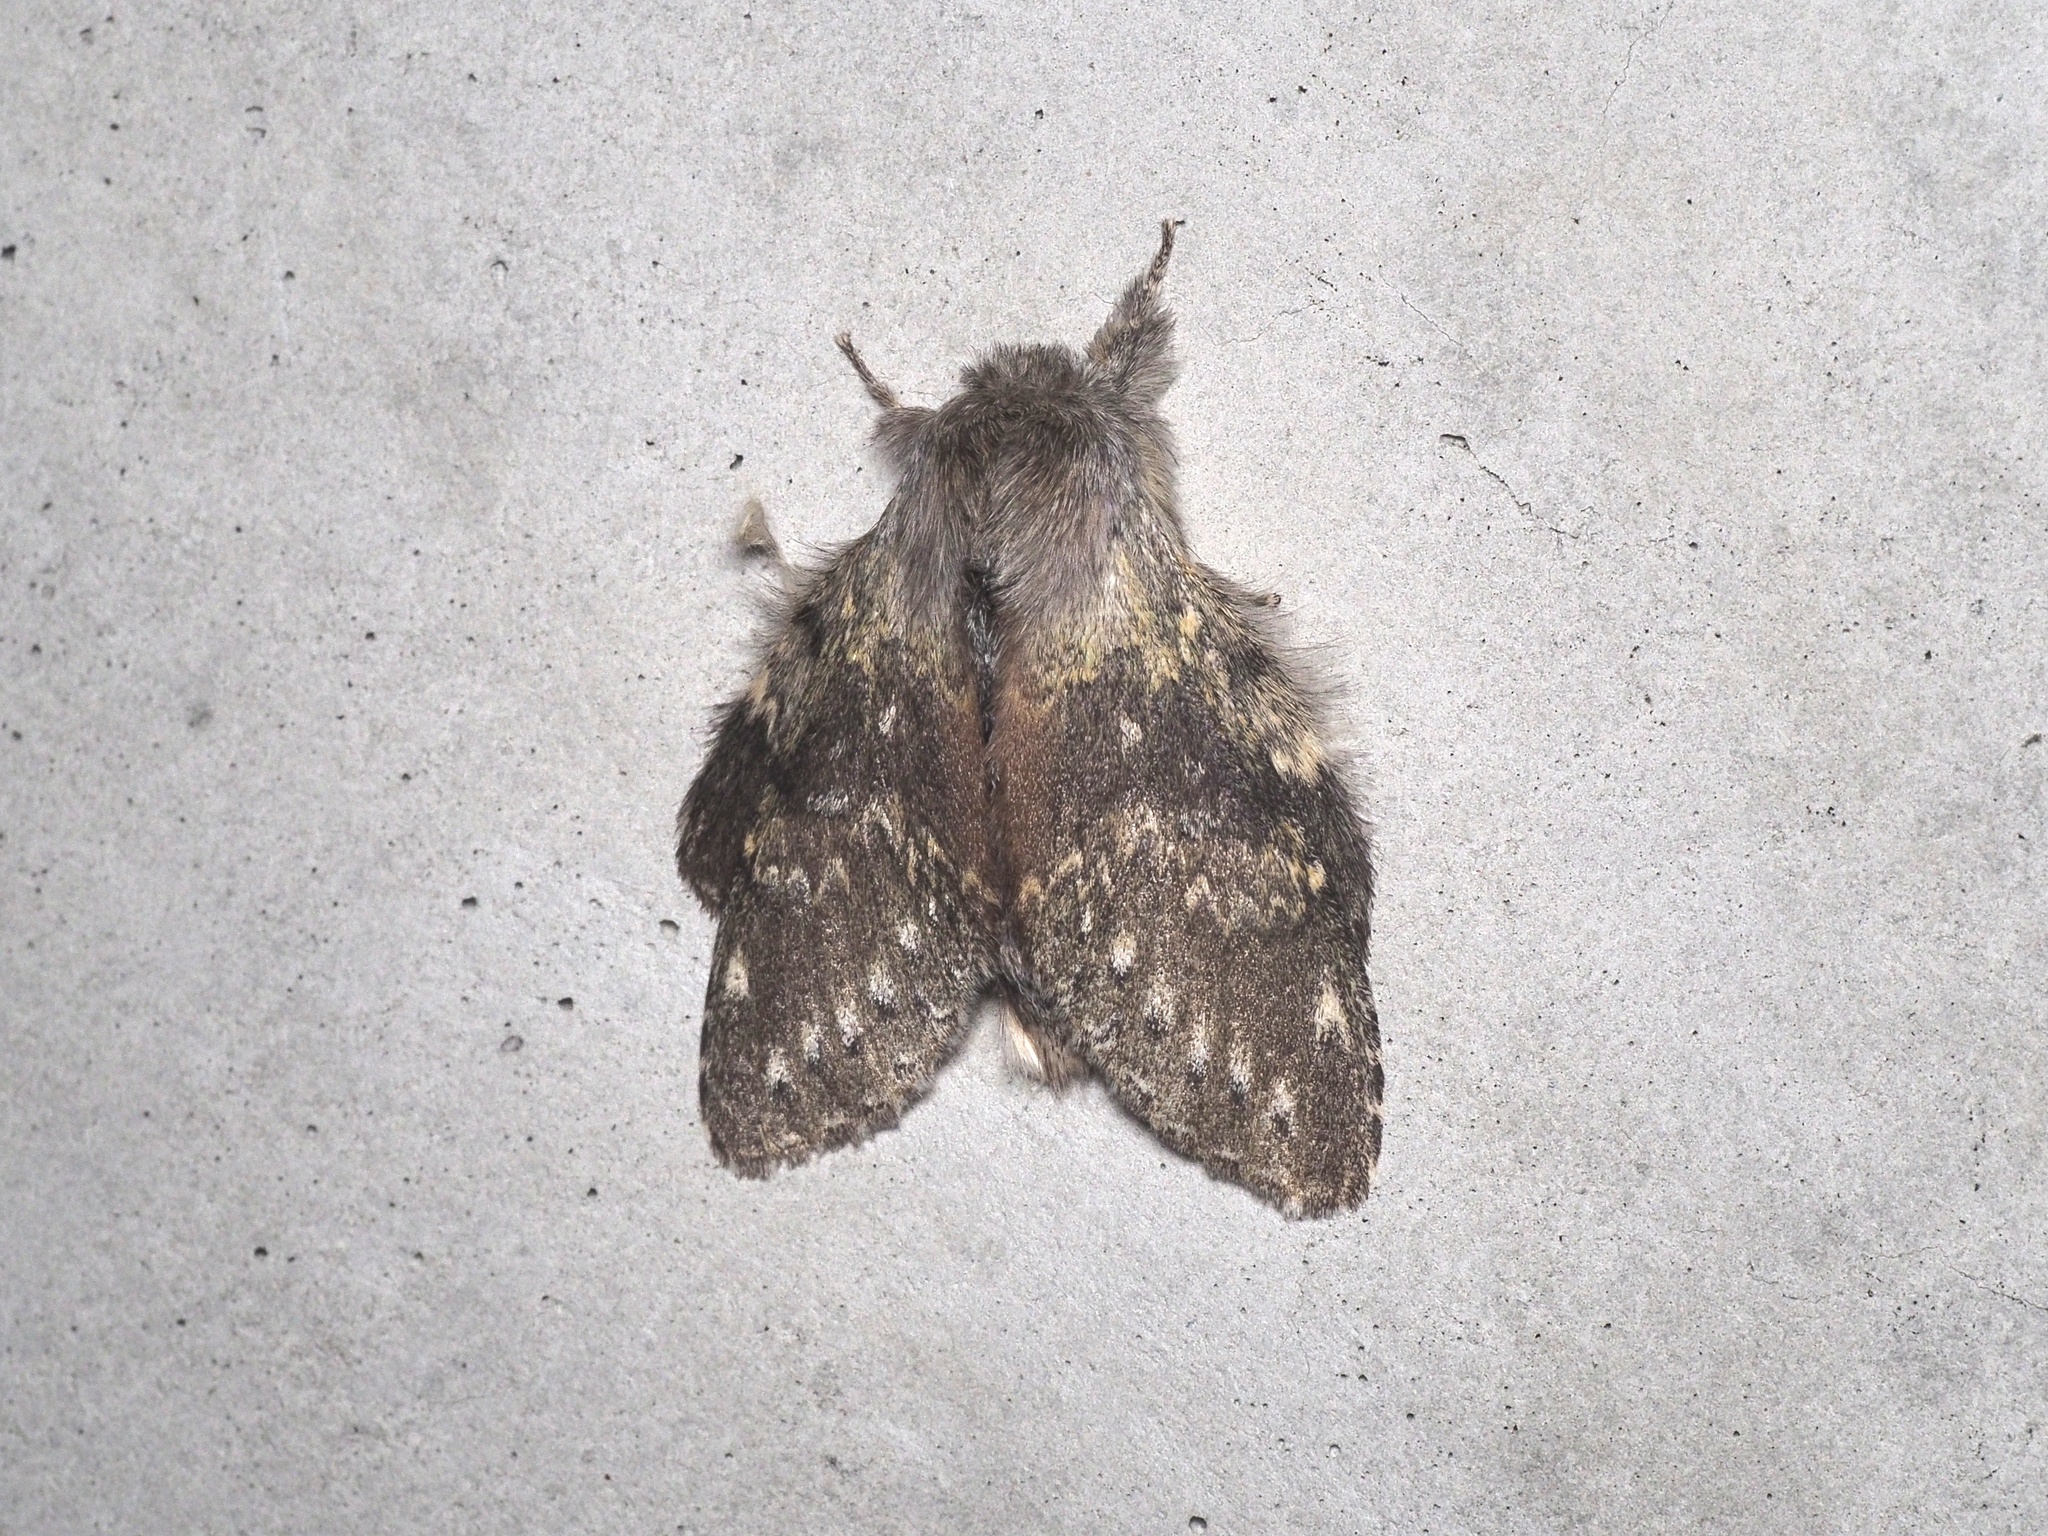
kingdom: Animalia
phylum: Arthropoda
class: Insecta
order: Lepidoptera
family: Notodontidae
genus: Stauropus
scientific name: Stauropus fagi
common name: Lobster moth
